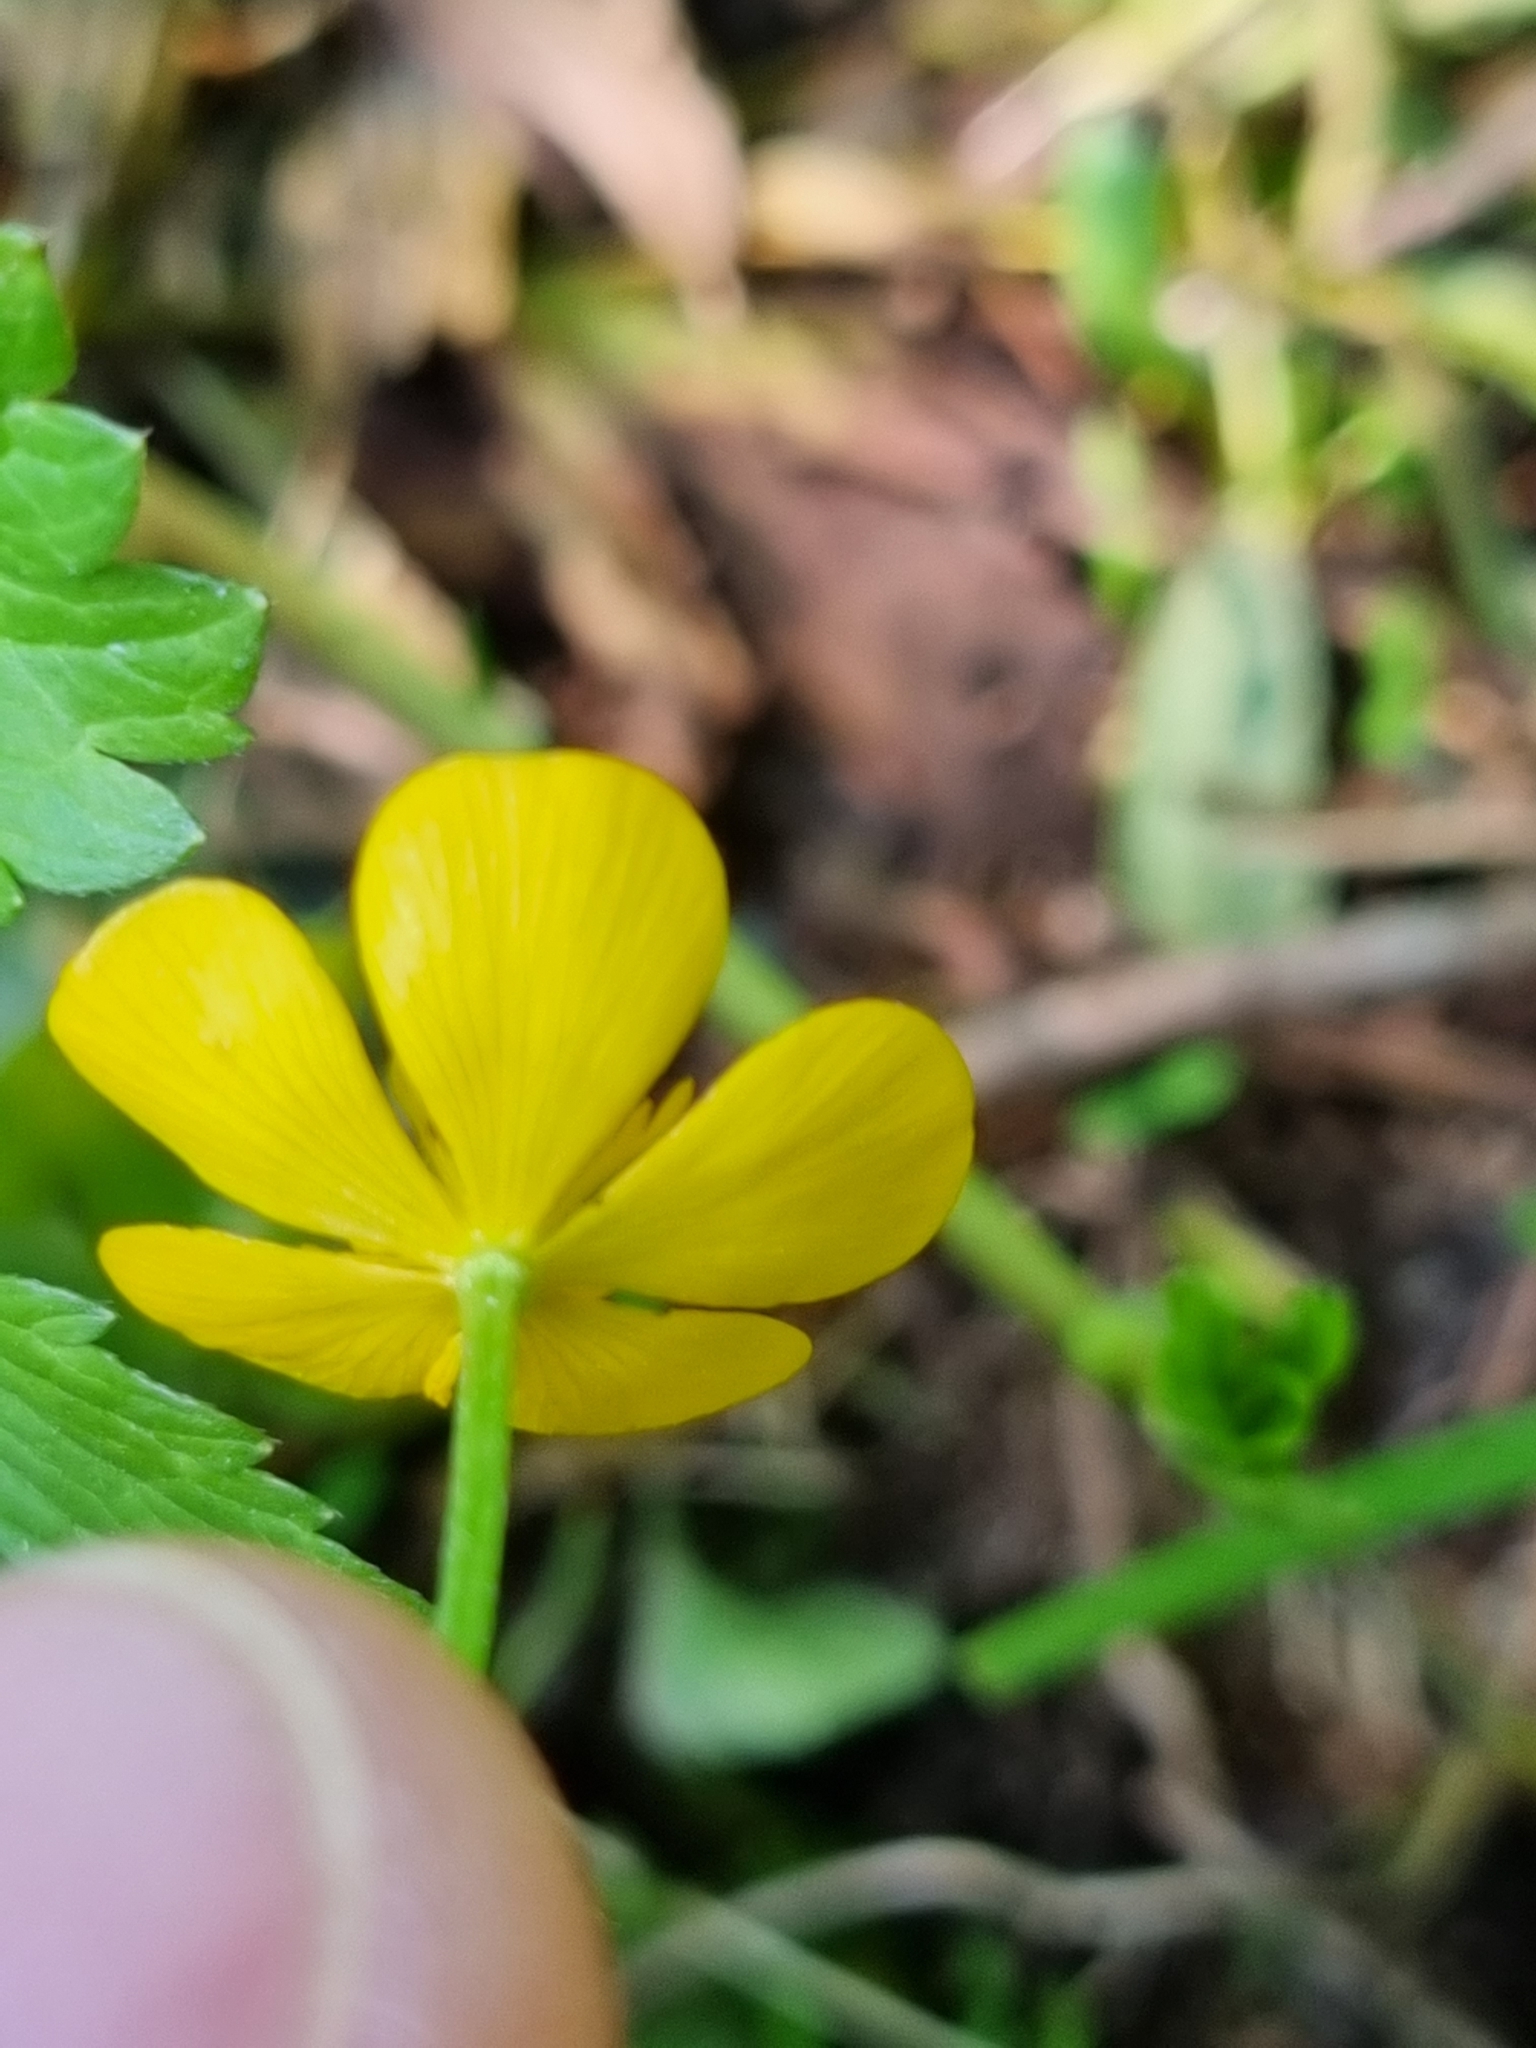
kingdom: Plantae
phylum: Tracheophyta
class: Magnoliopsida
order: Ranunculales
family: Ranunculaceae
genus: Ranunculus
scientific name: Ranunculus repens
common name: Creeping buttercup
